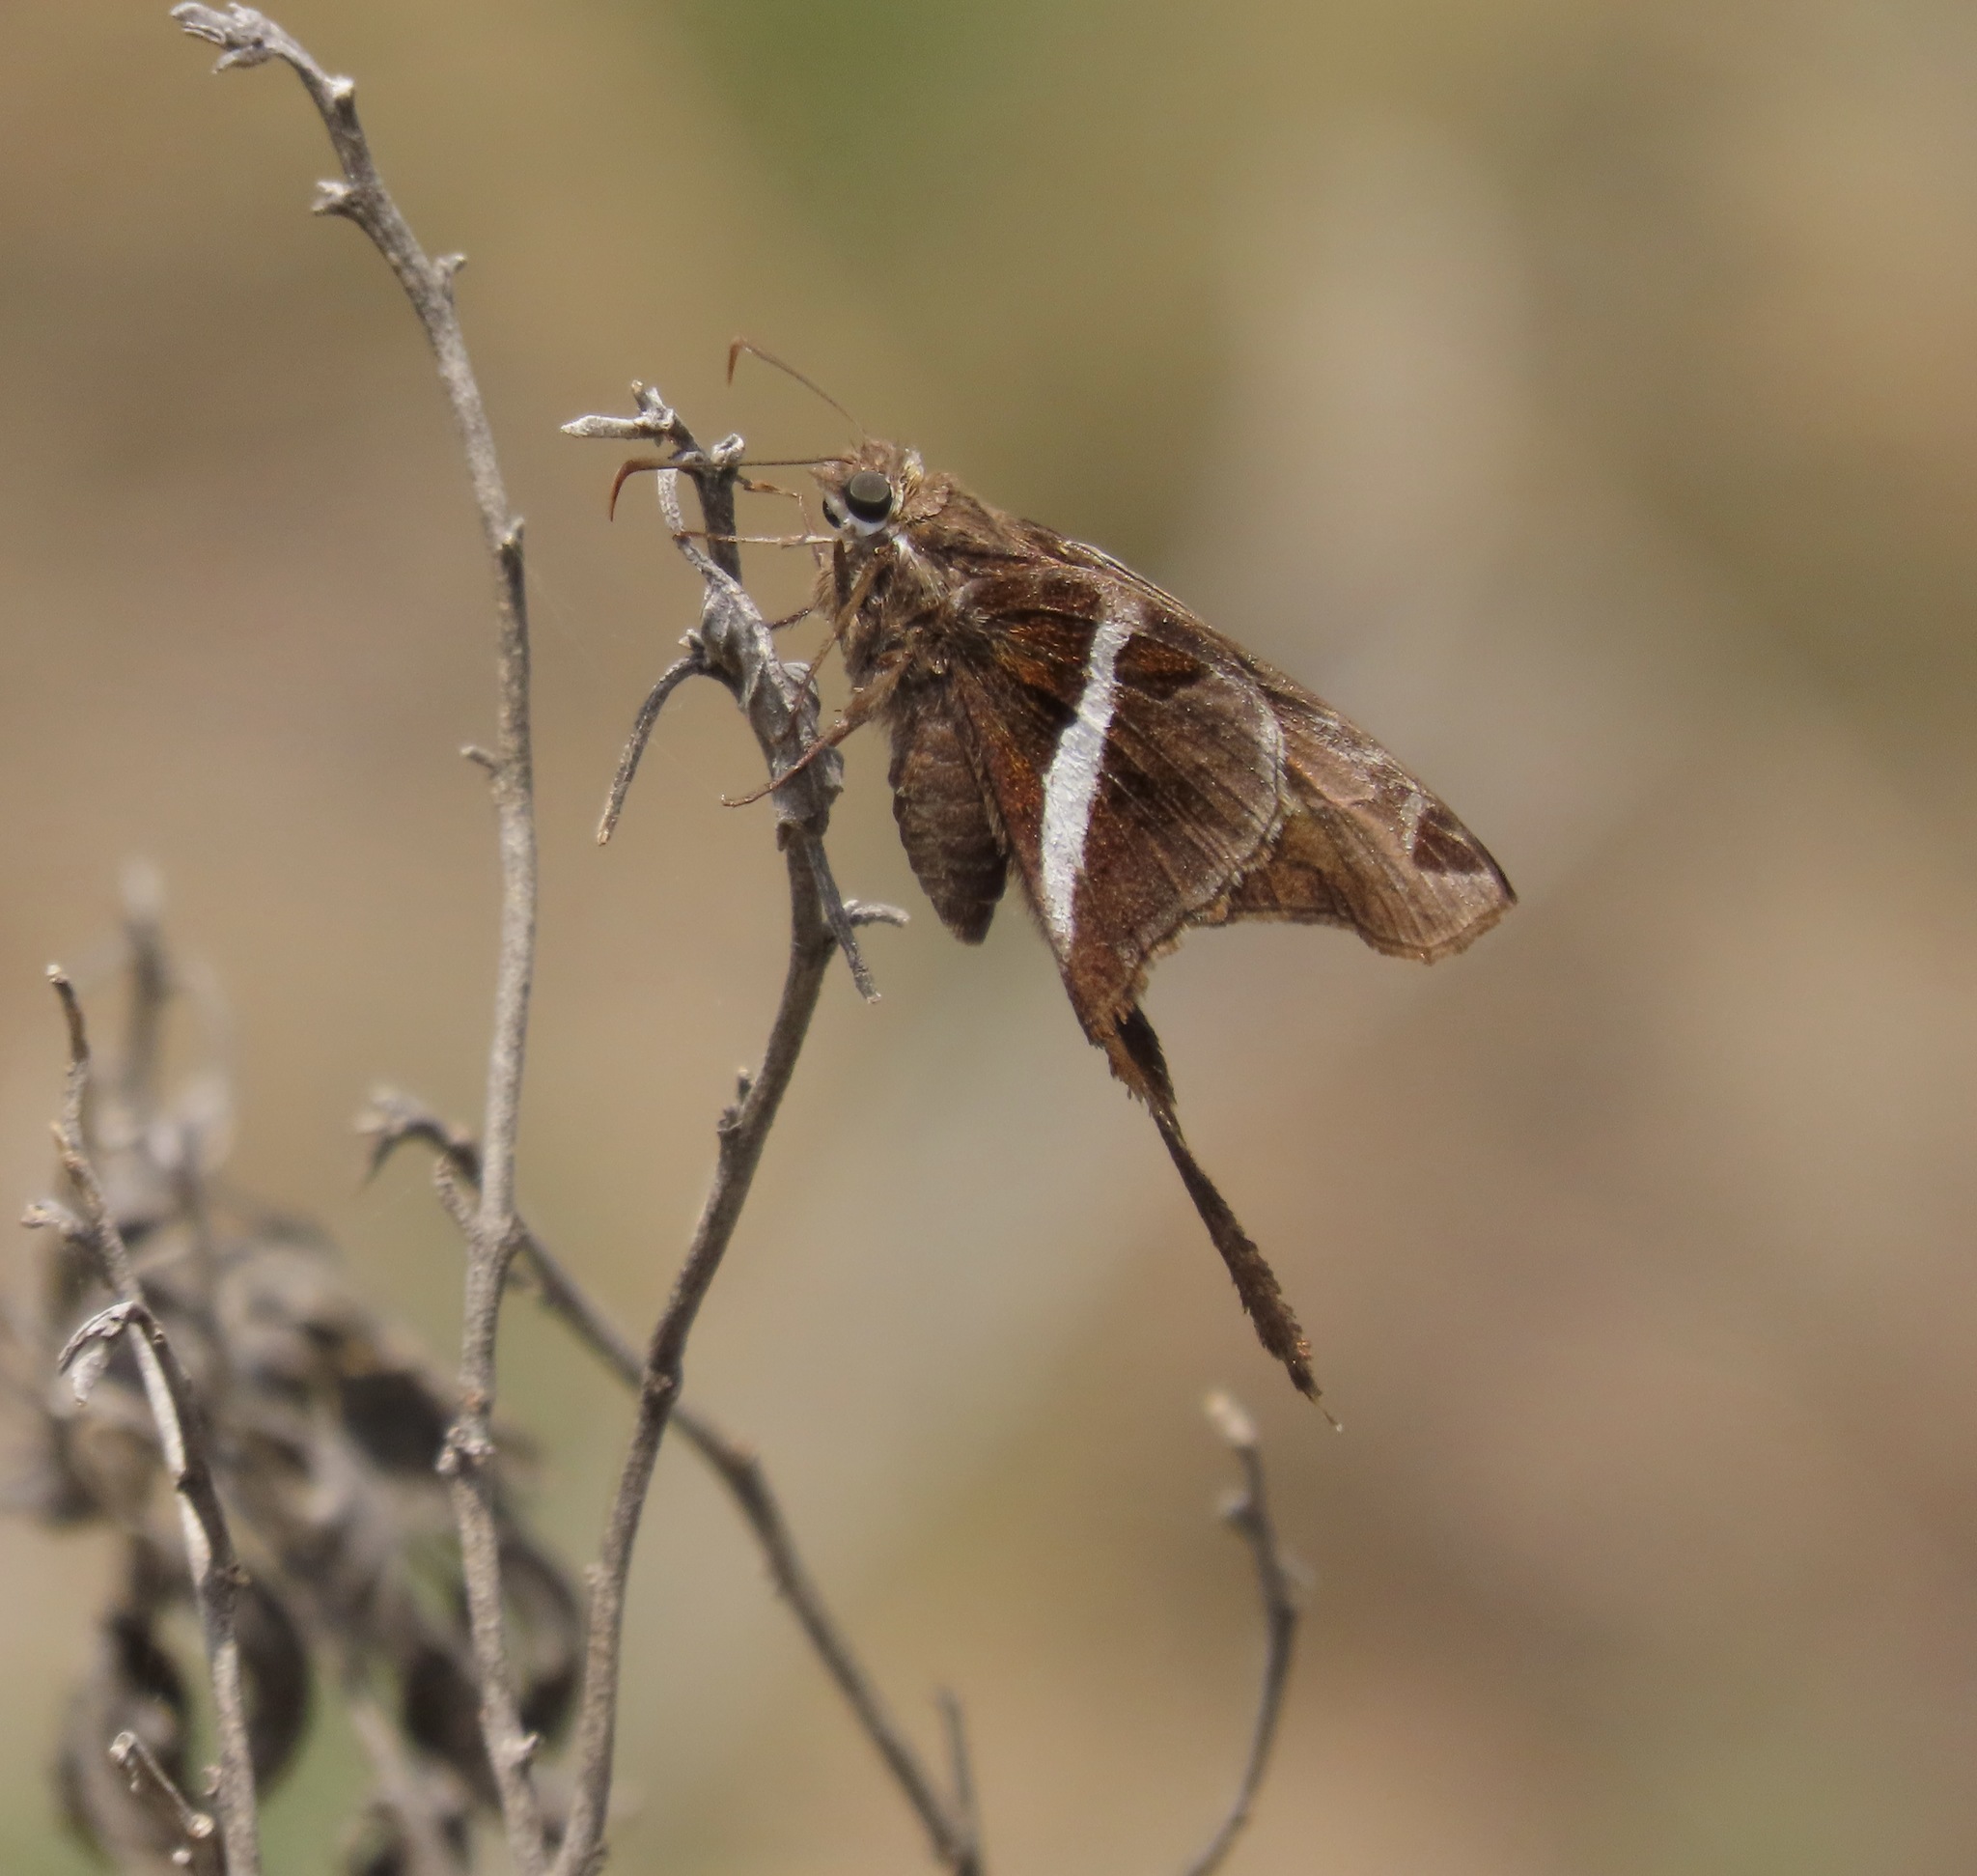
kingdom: Animalia
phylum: Arthropoda
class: Insecta
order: Lepidoptera
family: Hesperiidae
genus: Chioides
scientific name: Chioides catillus
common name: Silverbanded skipper
